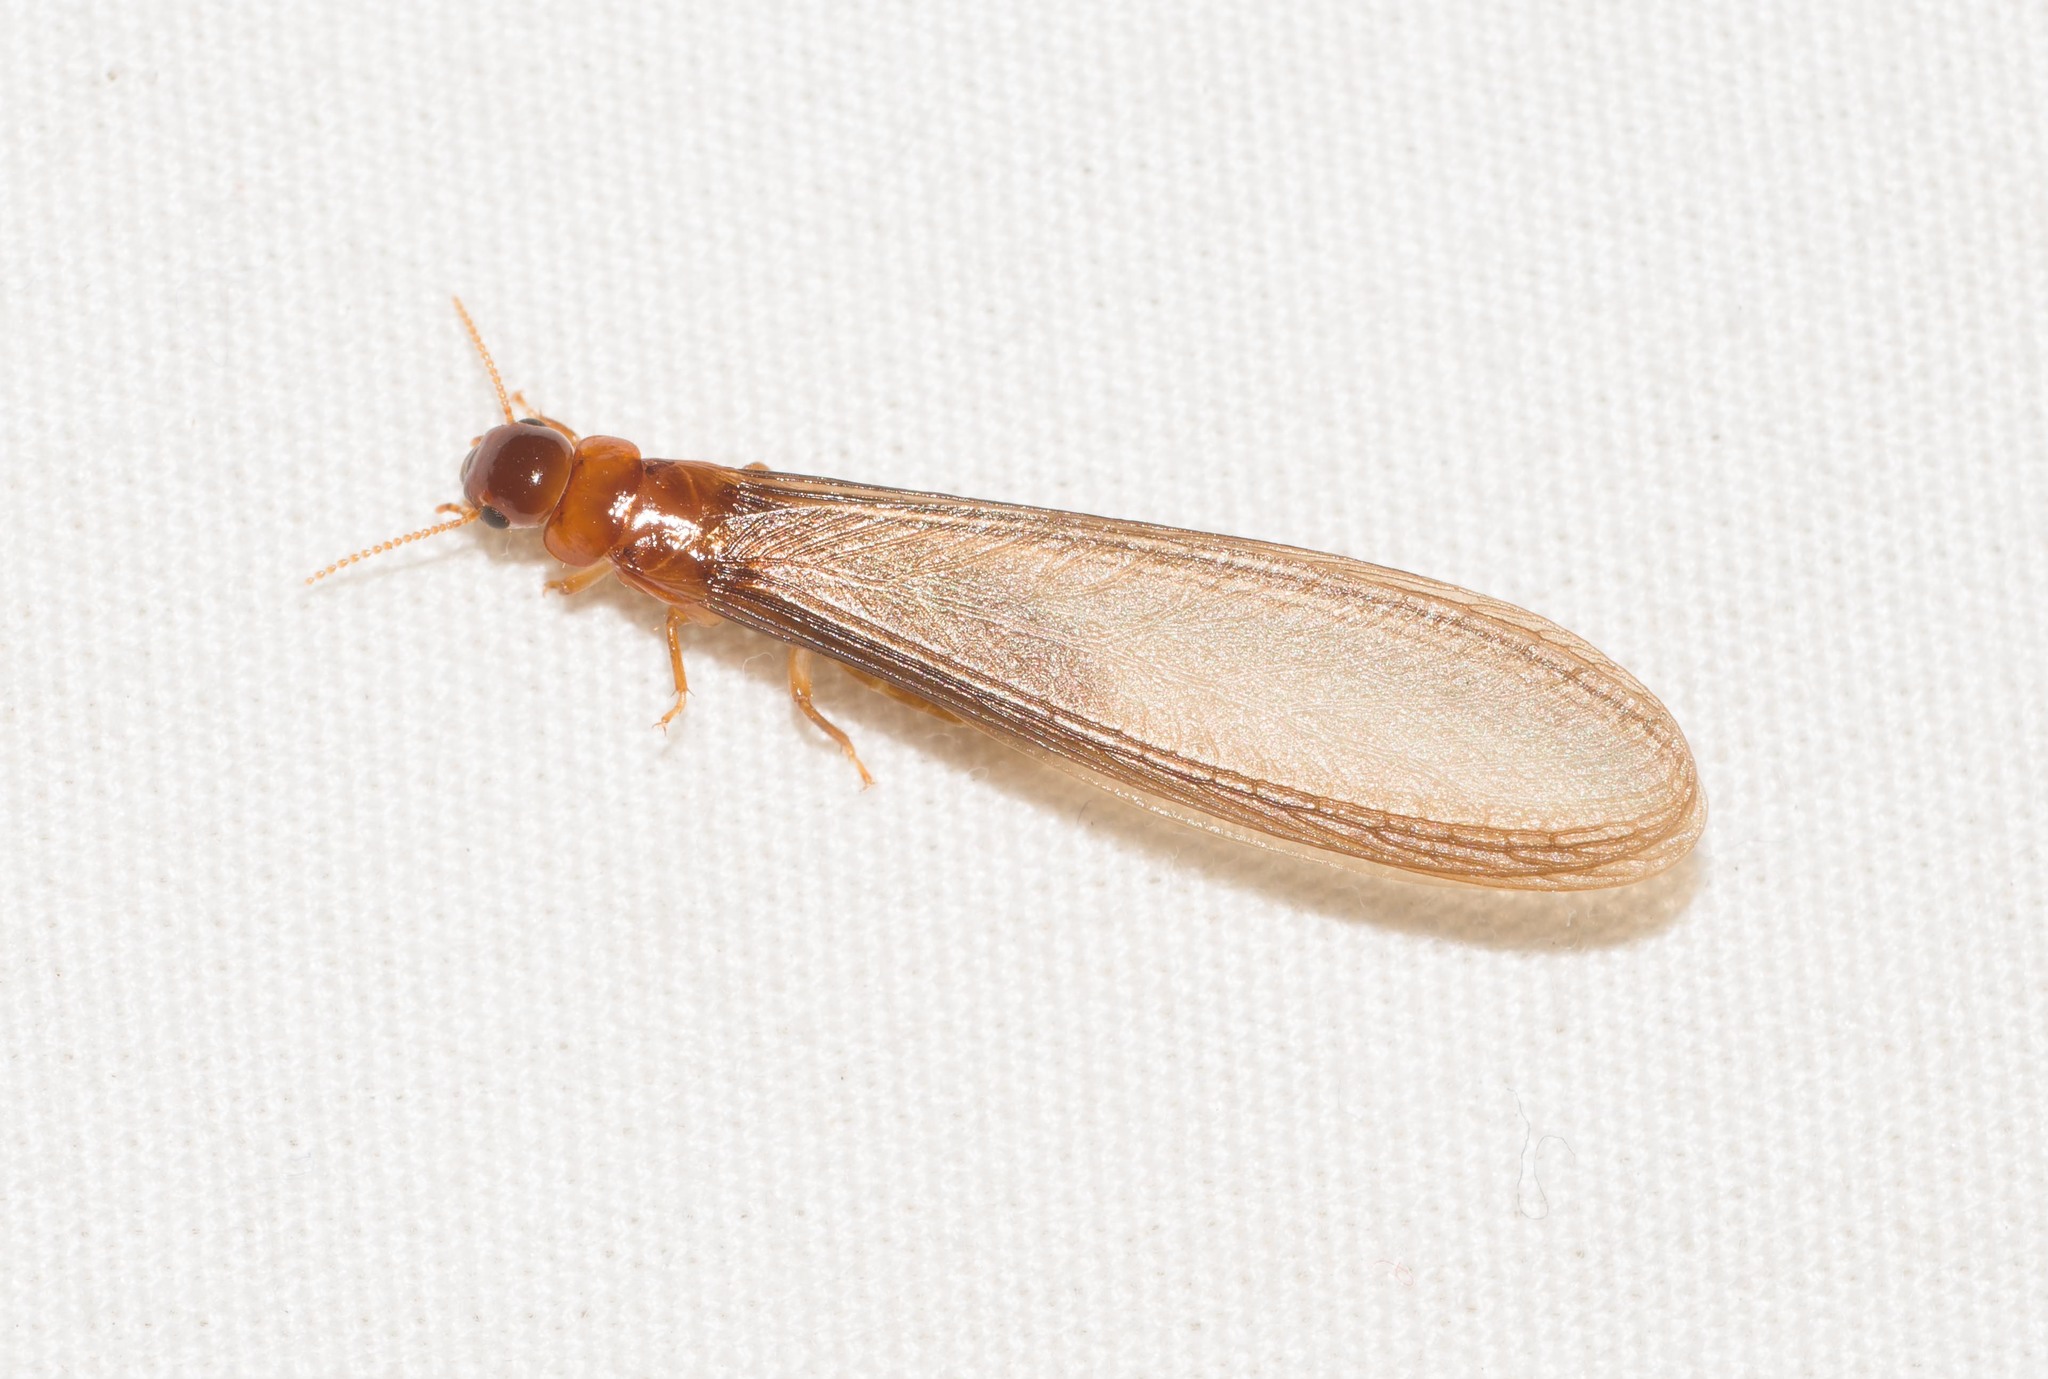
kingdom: Animalia
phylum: Arthropoda
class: Insecta
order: Blattodea
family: Kalotermitidae
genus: Neotermes
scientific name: Neotermes connexus
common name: Termite
